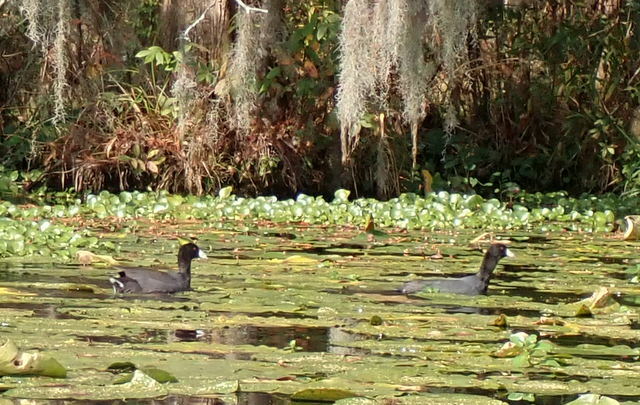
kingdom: Animalia
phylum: Chordata
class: Aves
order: Gruiformes
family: Rallidae
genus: Fulica
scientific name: Fulica americana
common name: American coot
